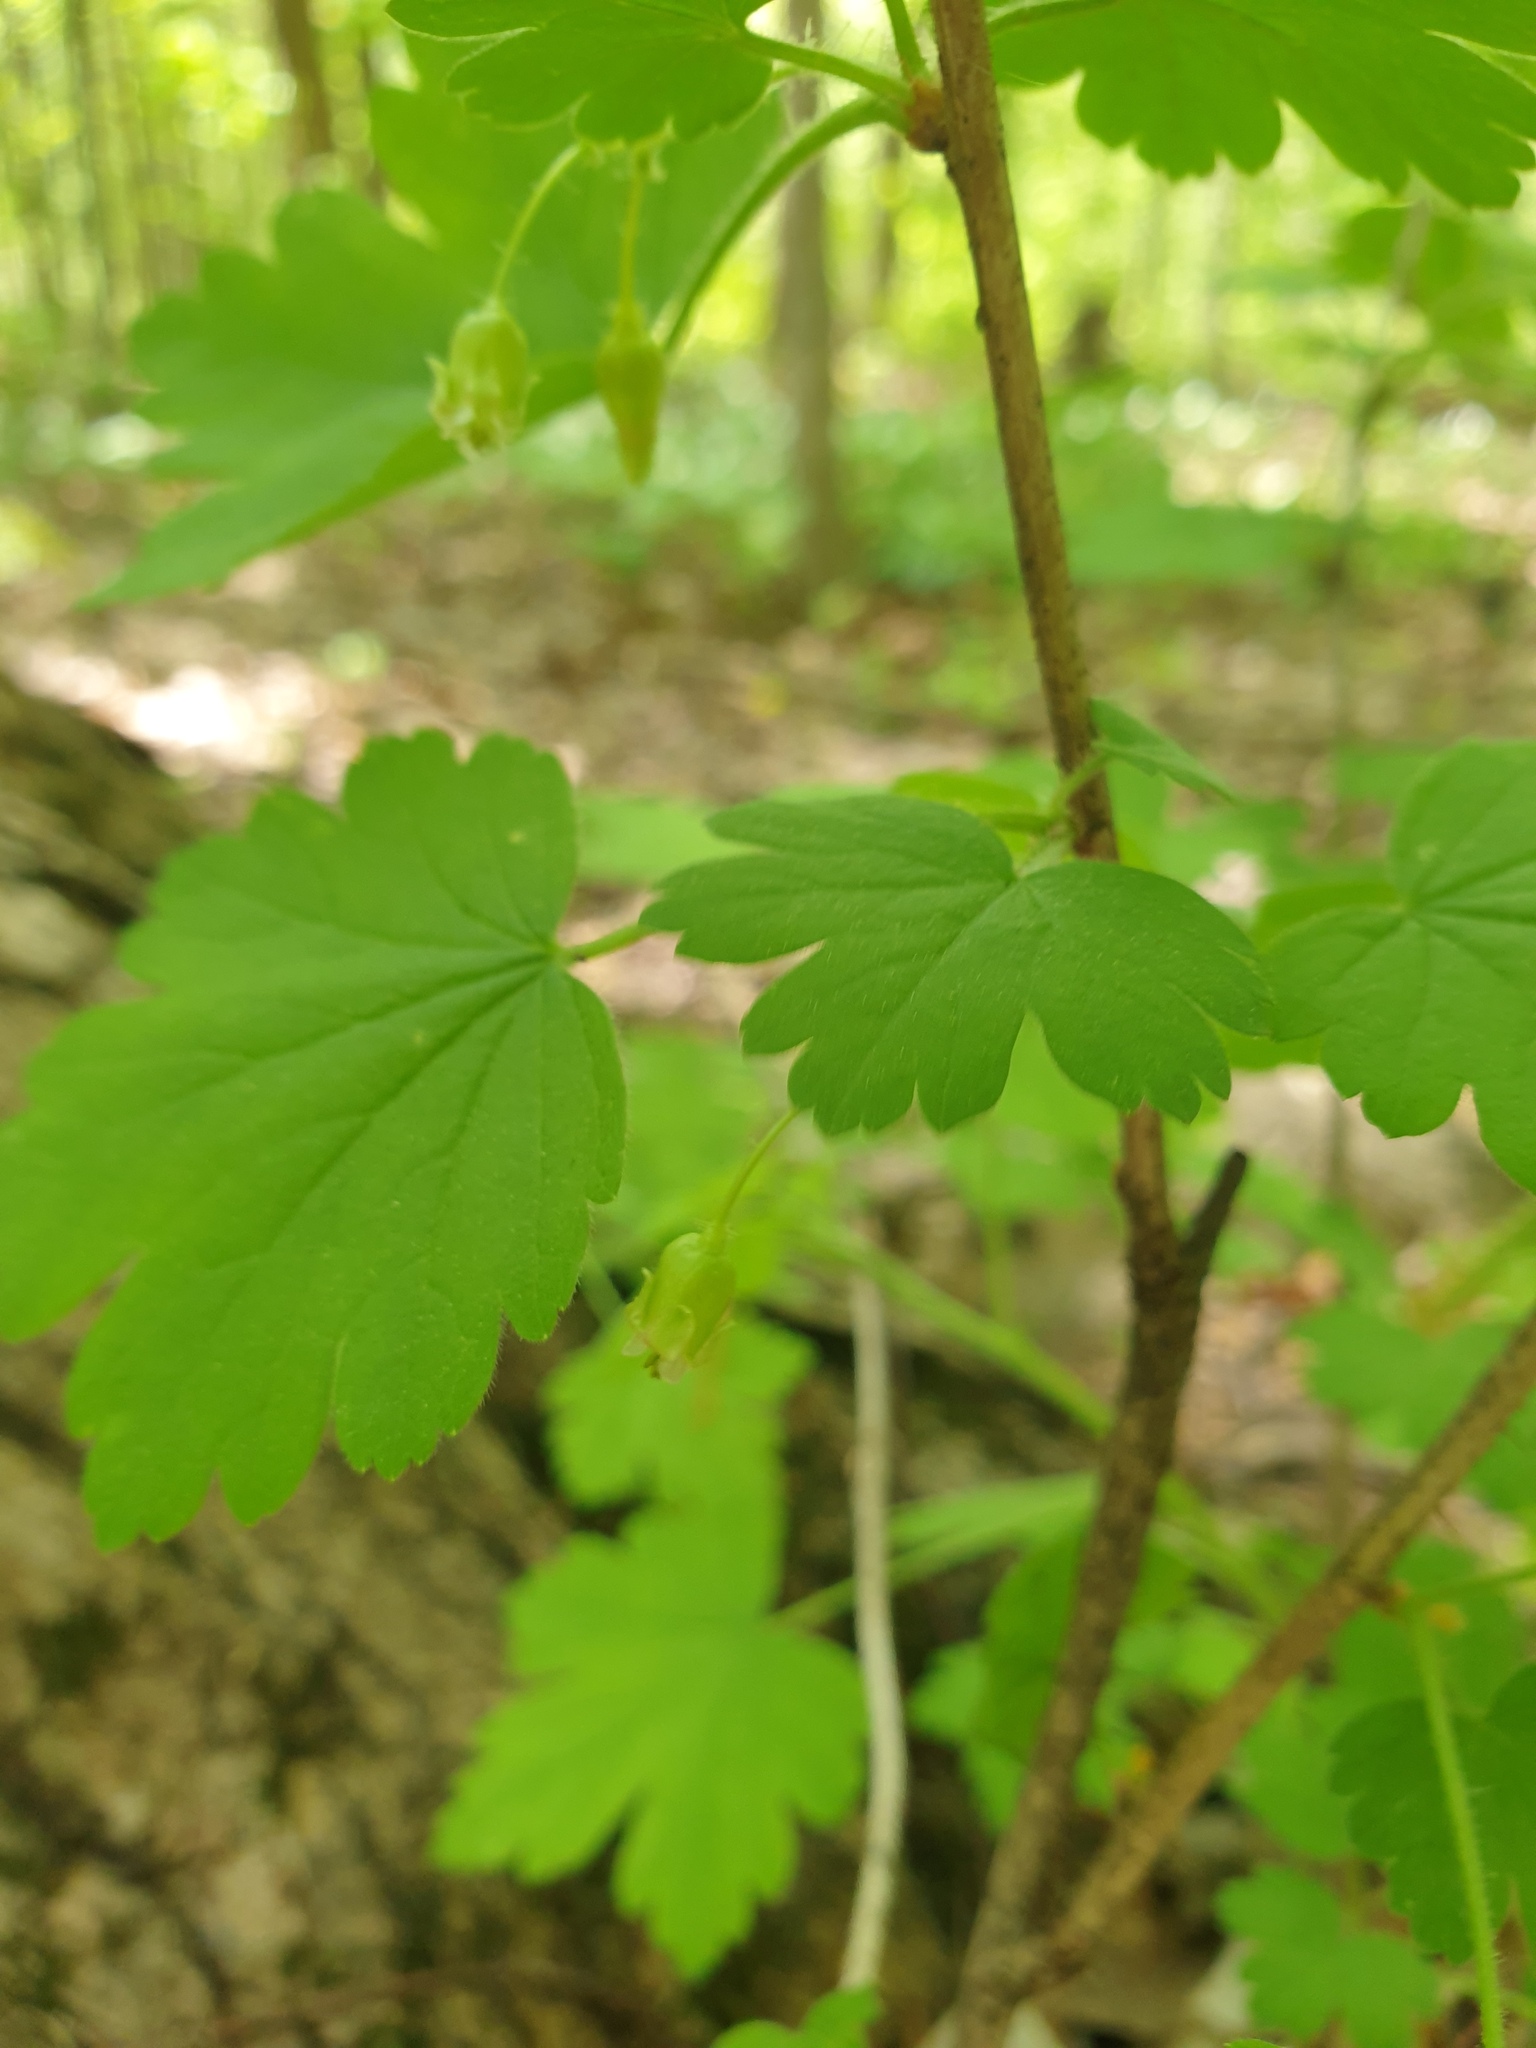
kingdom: Plantae
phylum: Tracheophyta
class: Magnoliopsida
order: Saxifragales
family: Grossulariaceae
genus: Ribes
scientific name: Ribes cynosbati
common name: American gooseberry
